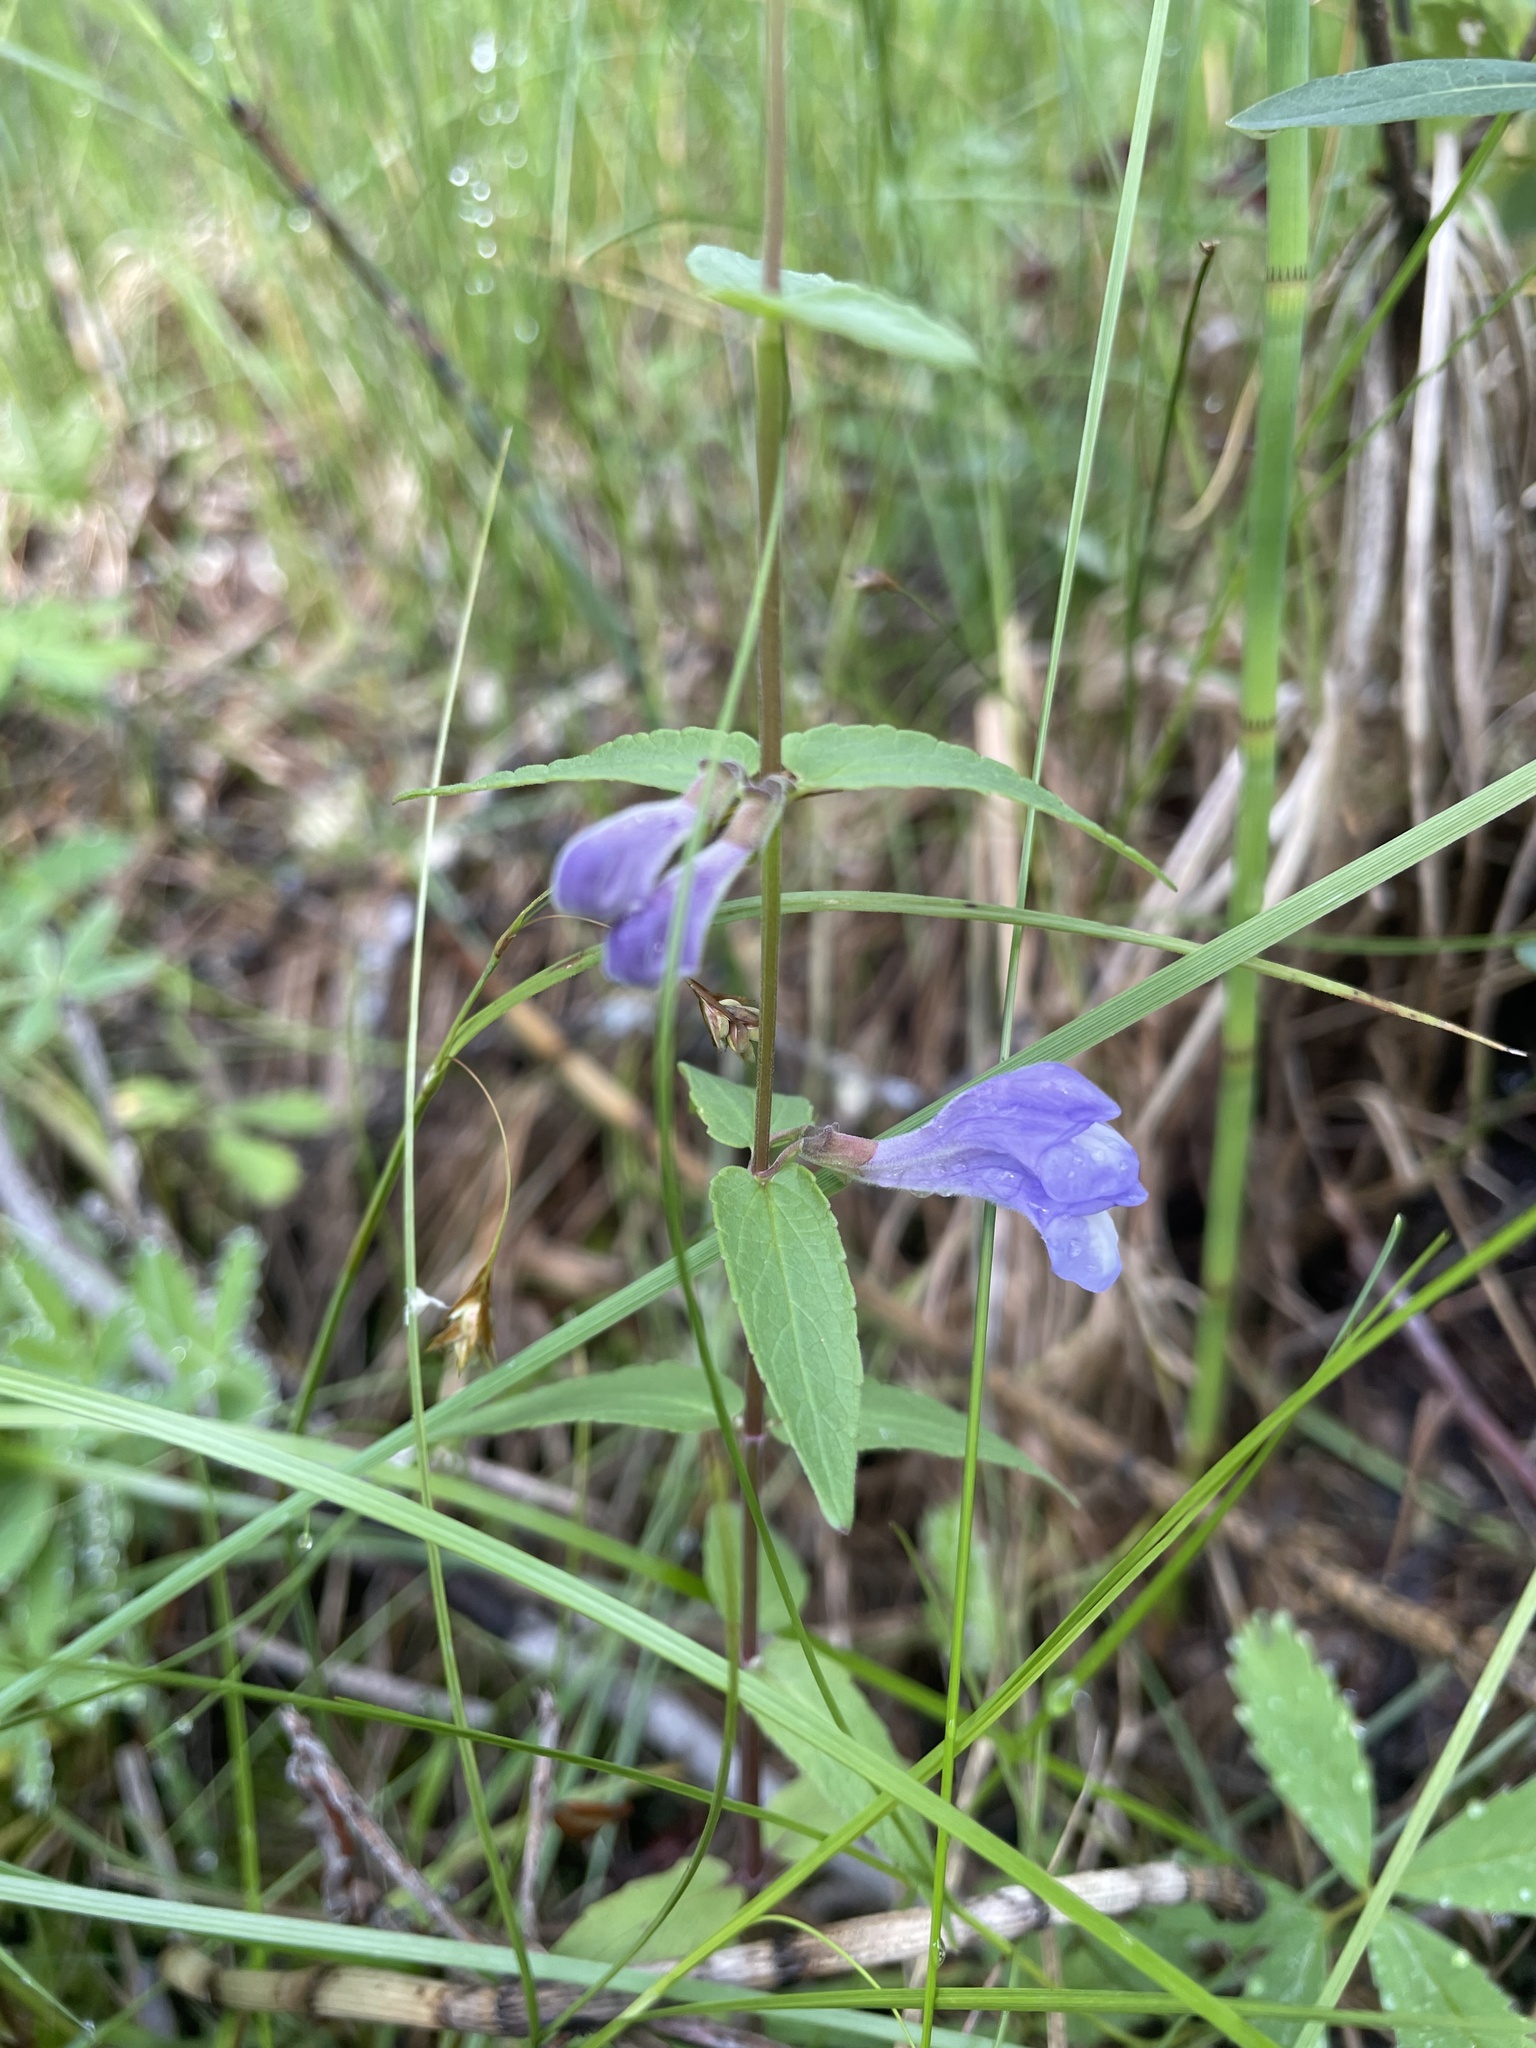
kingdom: Plantae
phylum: Tracheophyta
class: Magnoliopsida
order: Lamiales
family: Lamiaceae
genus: Scutellaria
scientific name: Scutellaria galericulata
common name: Skullcap
